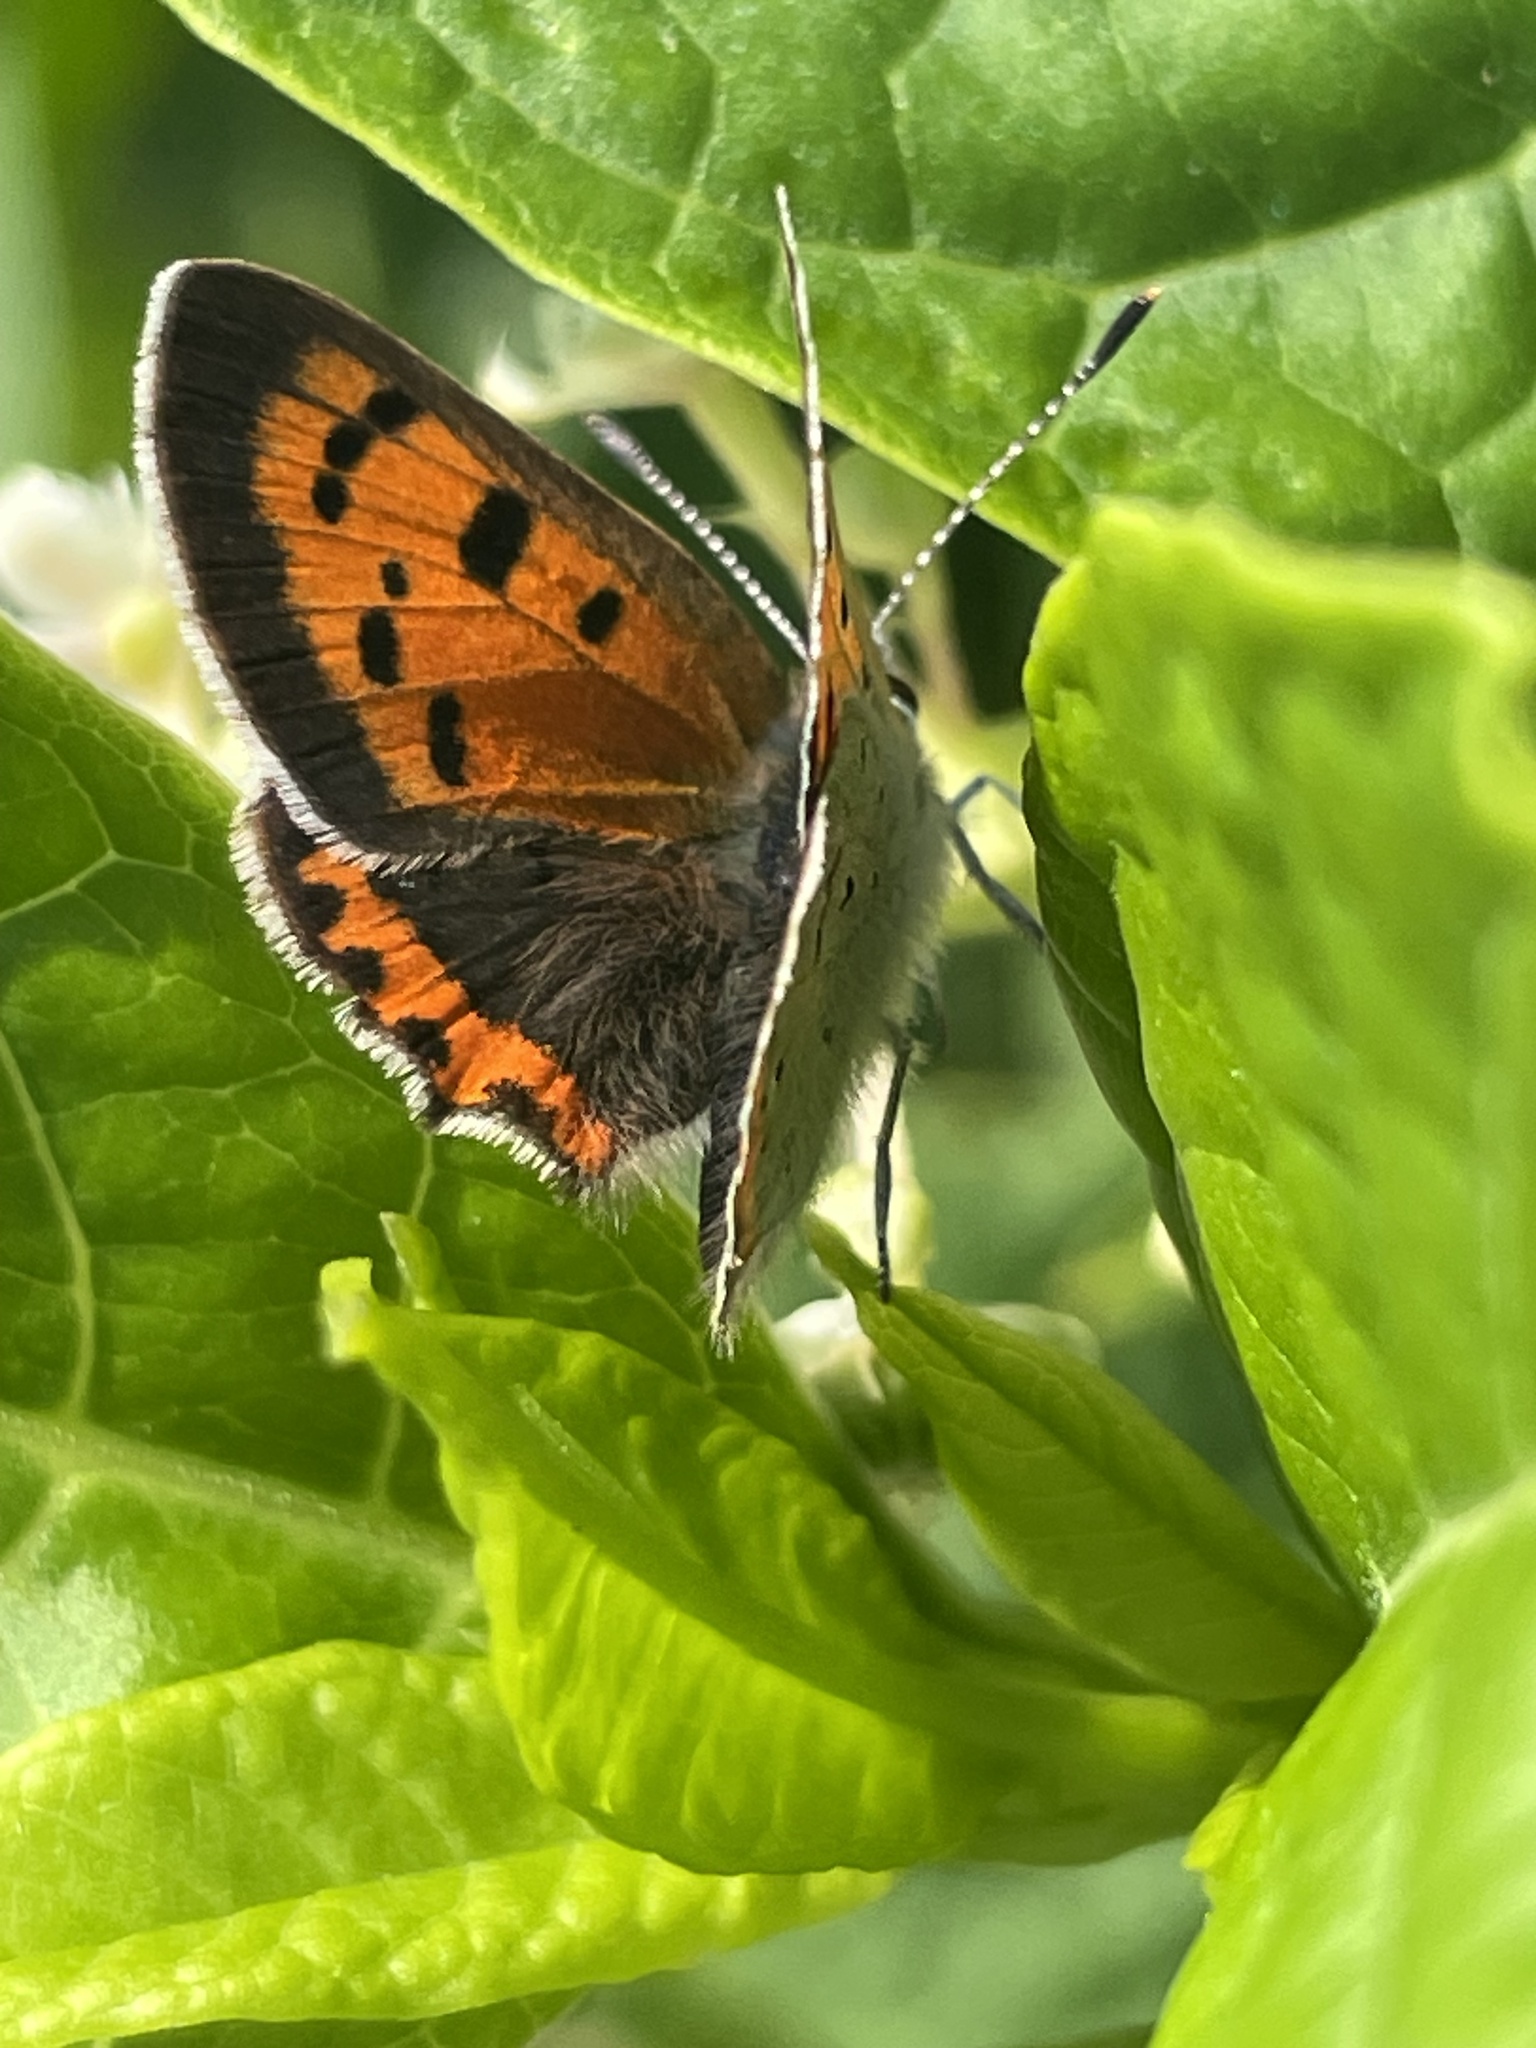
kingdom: Animalia
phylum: Arthropoda
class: Insecta
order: Lepidoptera
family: Lycaenidae
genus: Lycaena
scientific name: Lycaena hypophlaeas
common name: American copper
